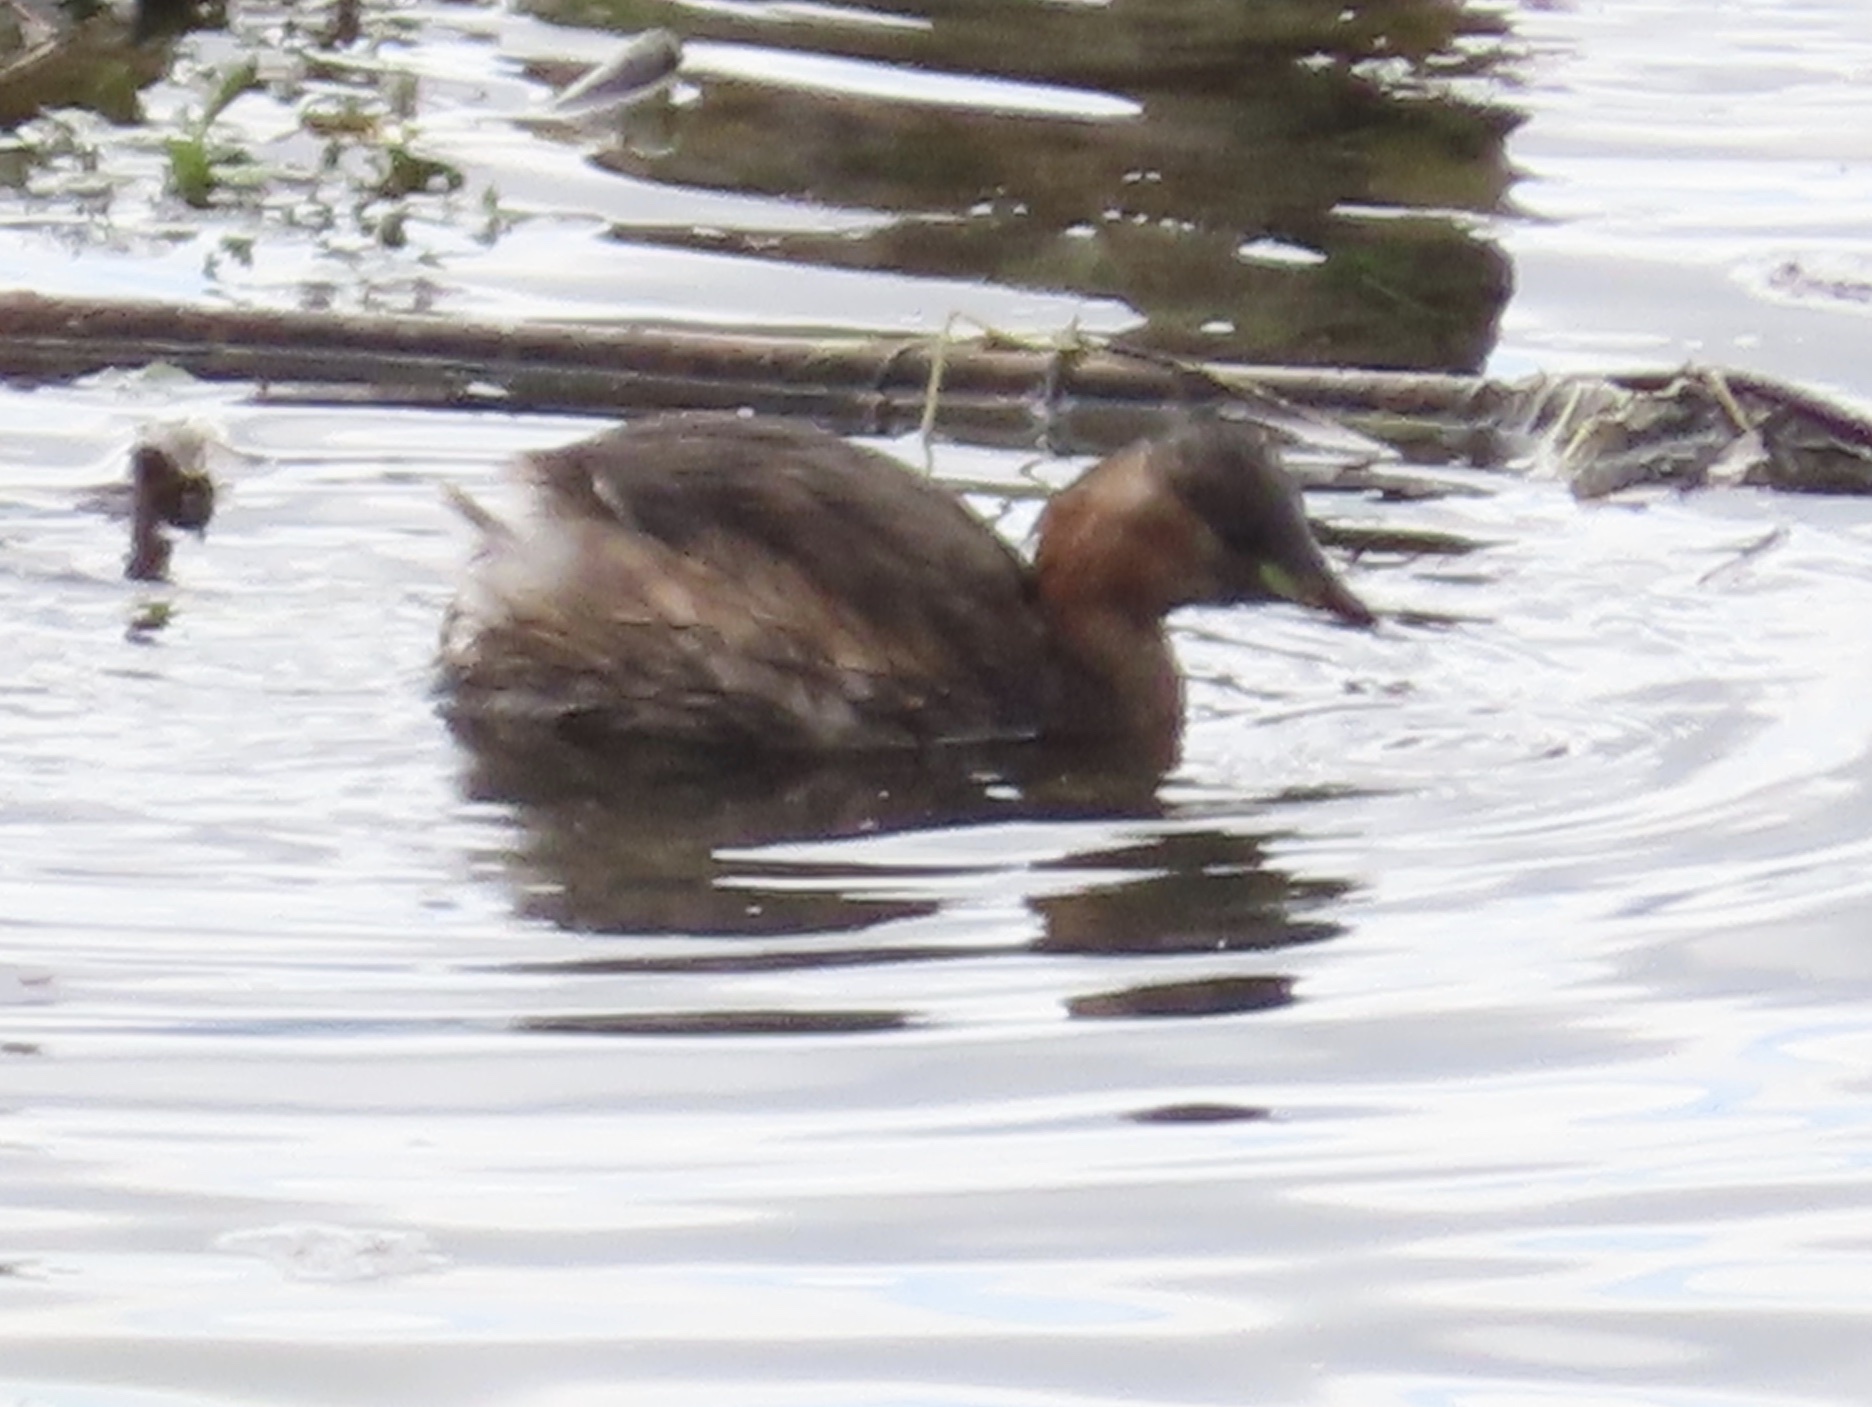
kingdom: Animalia
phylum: Chordata
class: Aves
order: Podicipediformes
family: Podicipedidae
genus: Tachybaptus
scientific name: Tachybaptus ruficollis
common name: Little grebe
